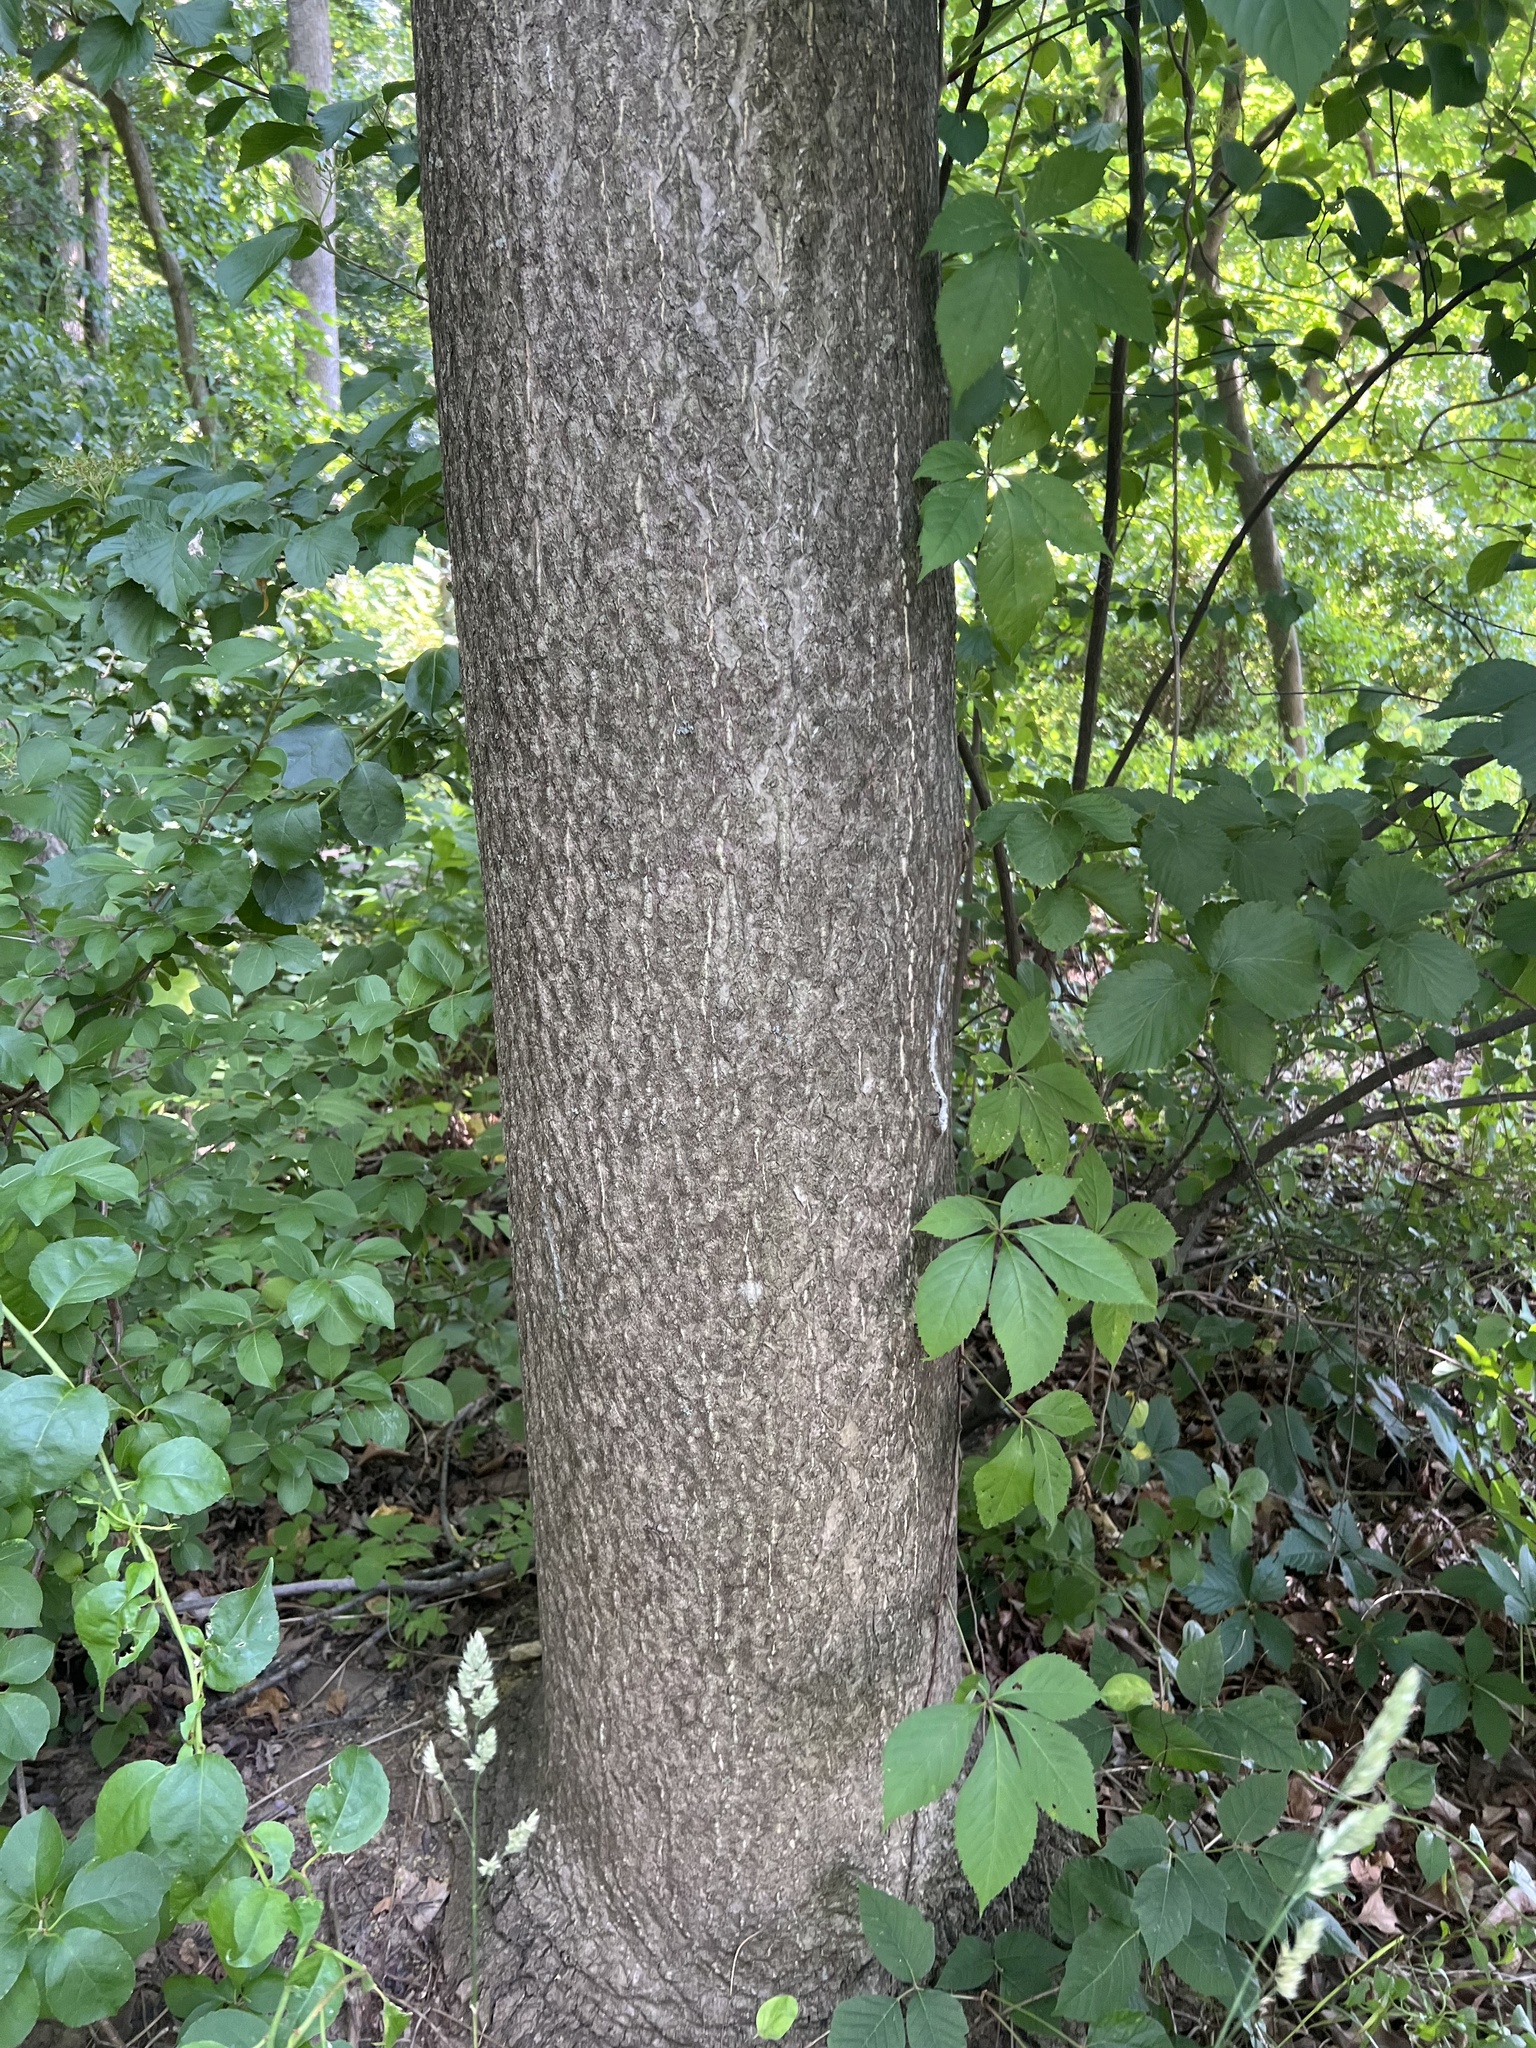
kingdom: Plantae
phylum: Tracheophyta
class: Magnoliopsida
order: Sapindales
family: Simaroubaceae
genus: Ailanthus
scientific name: Ailanthus altissima
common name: Tree-of-heaven
